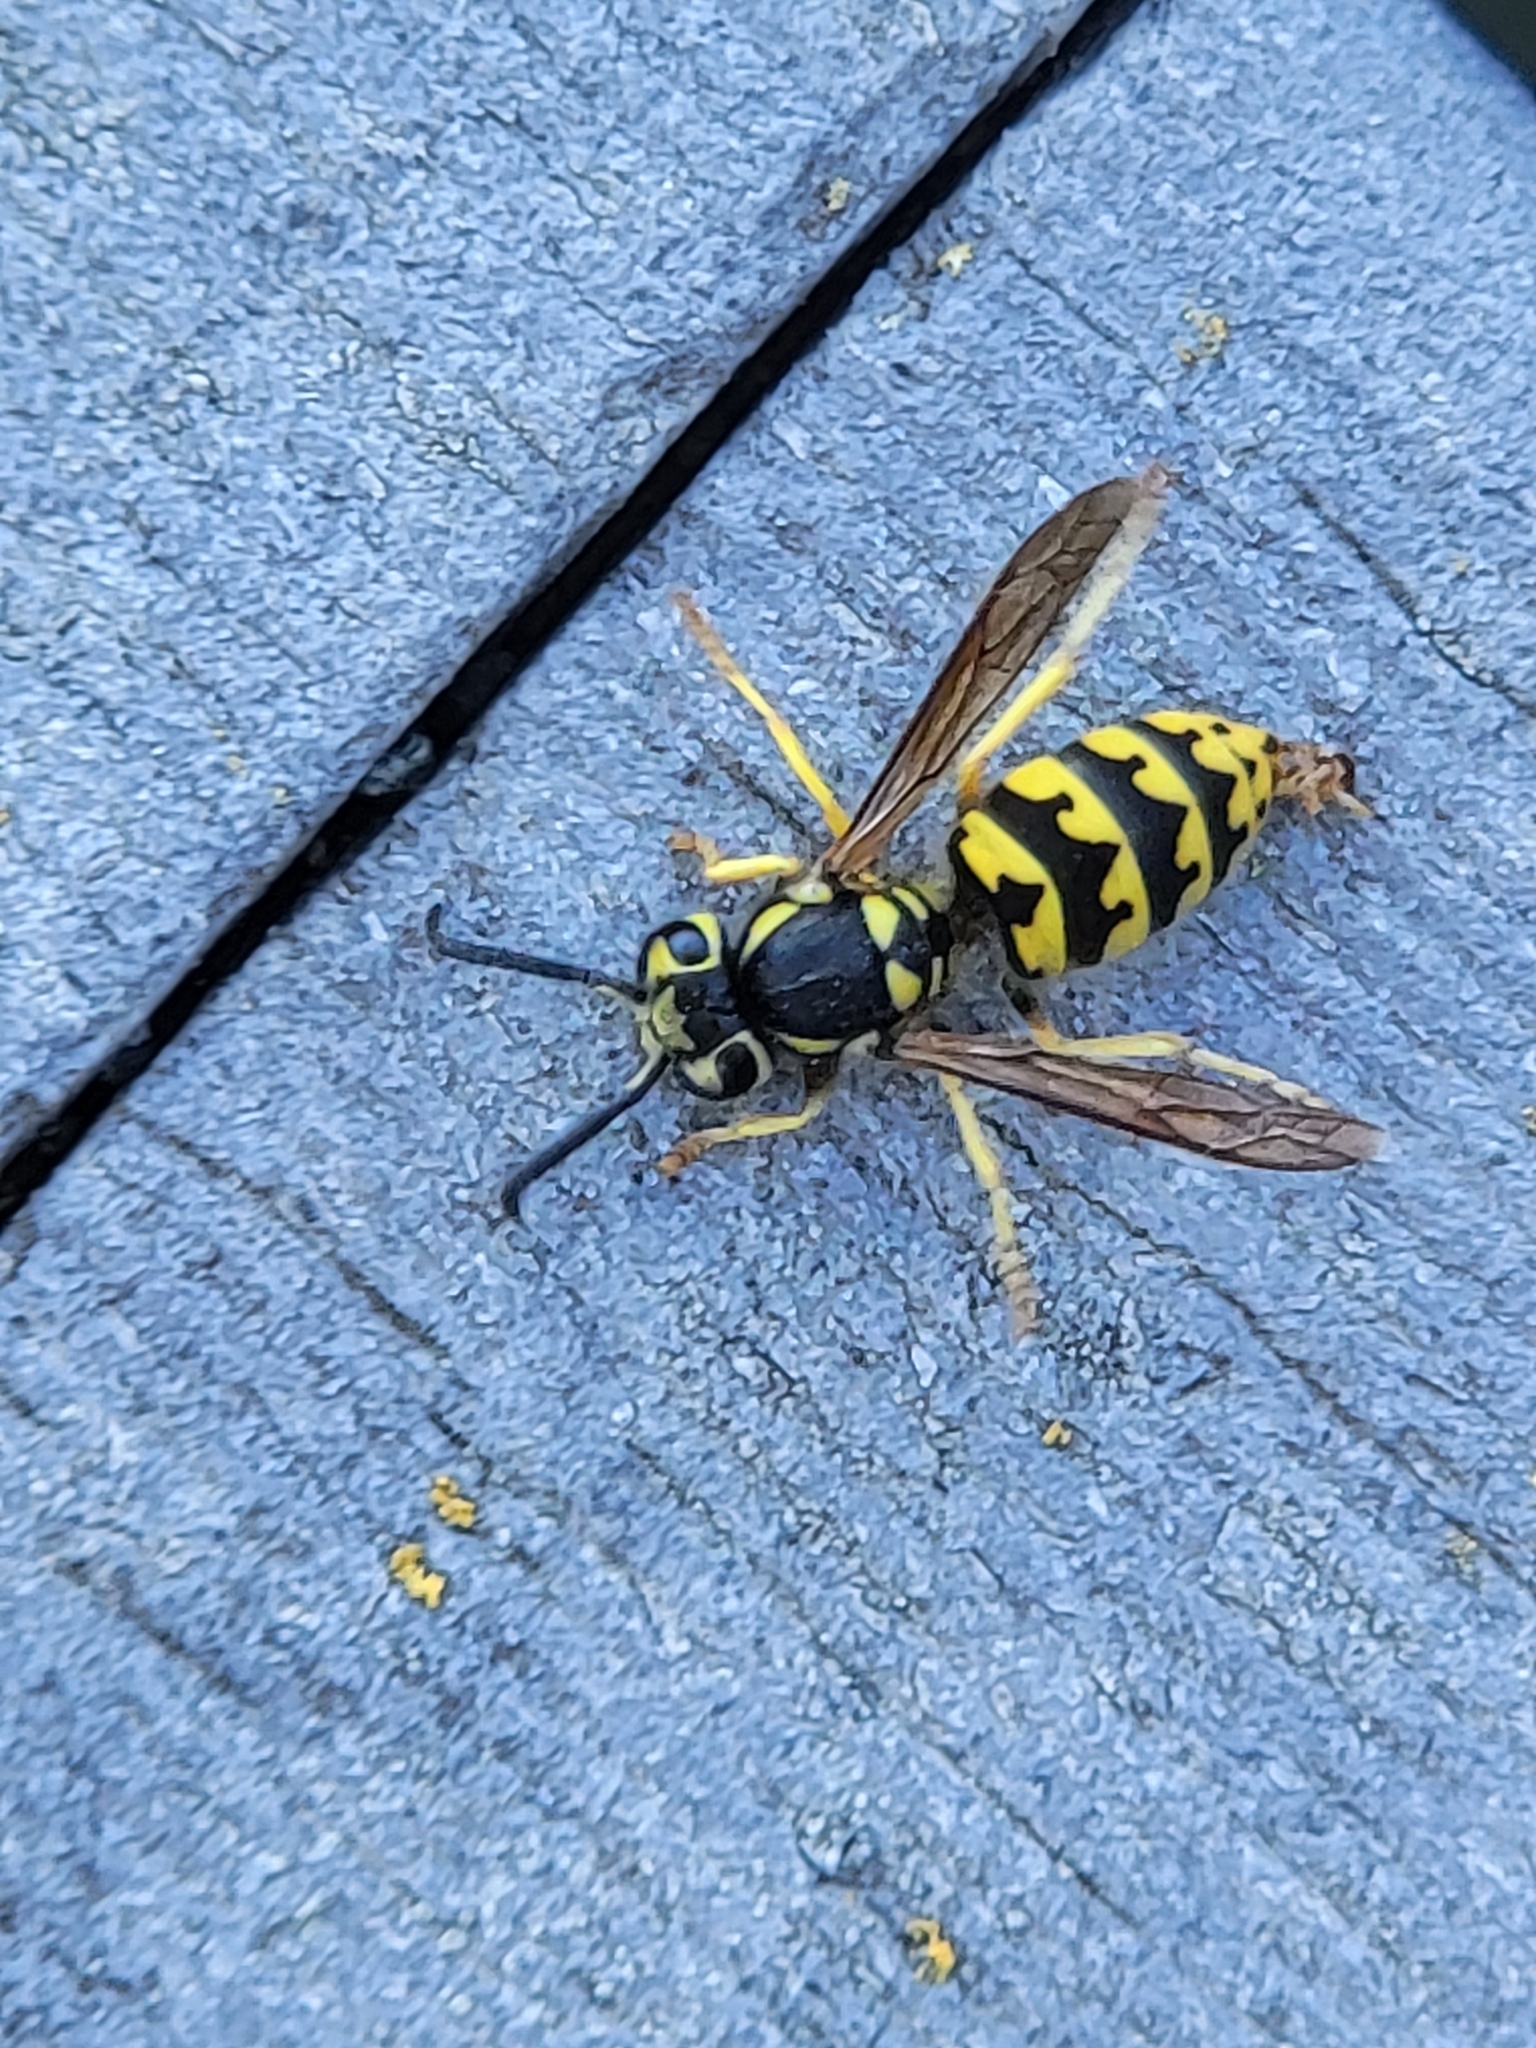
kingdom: Animalia
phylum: Arthropoda
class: Insecta
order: Hymenoptera
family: Vespidae
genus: Vespula
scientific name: Vespula pensylvanica
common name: Western yellowjacket
